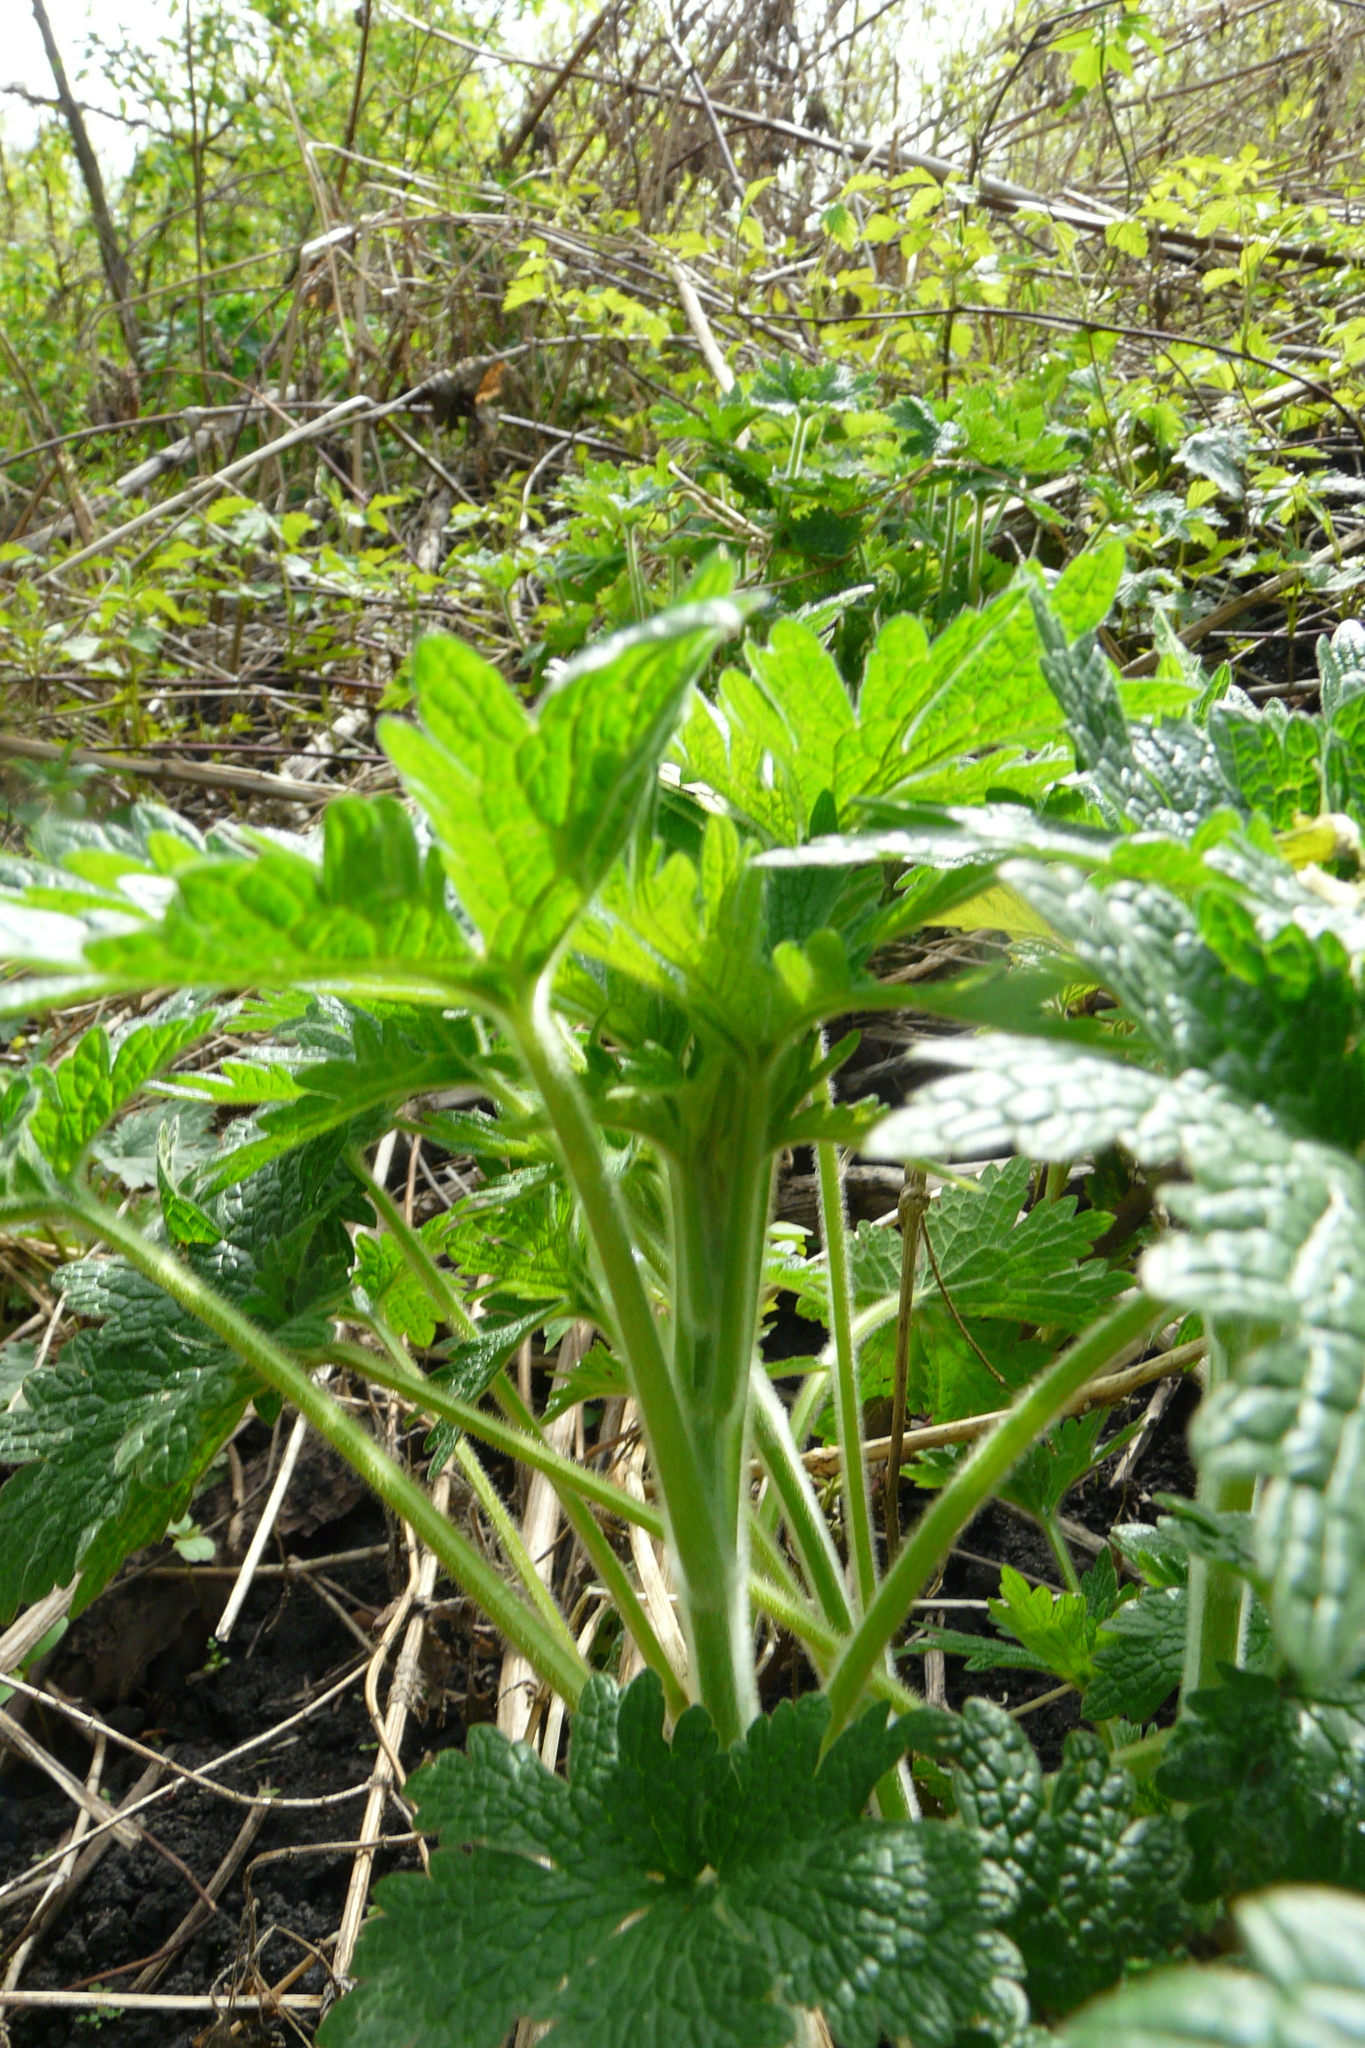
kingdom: Plantae
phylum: Tracheophyta
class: Magnoliopsida
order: Lamiales
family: Lamiaceae
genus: Leonurus
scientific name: Leonurus quinquelobatus
